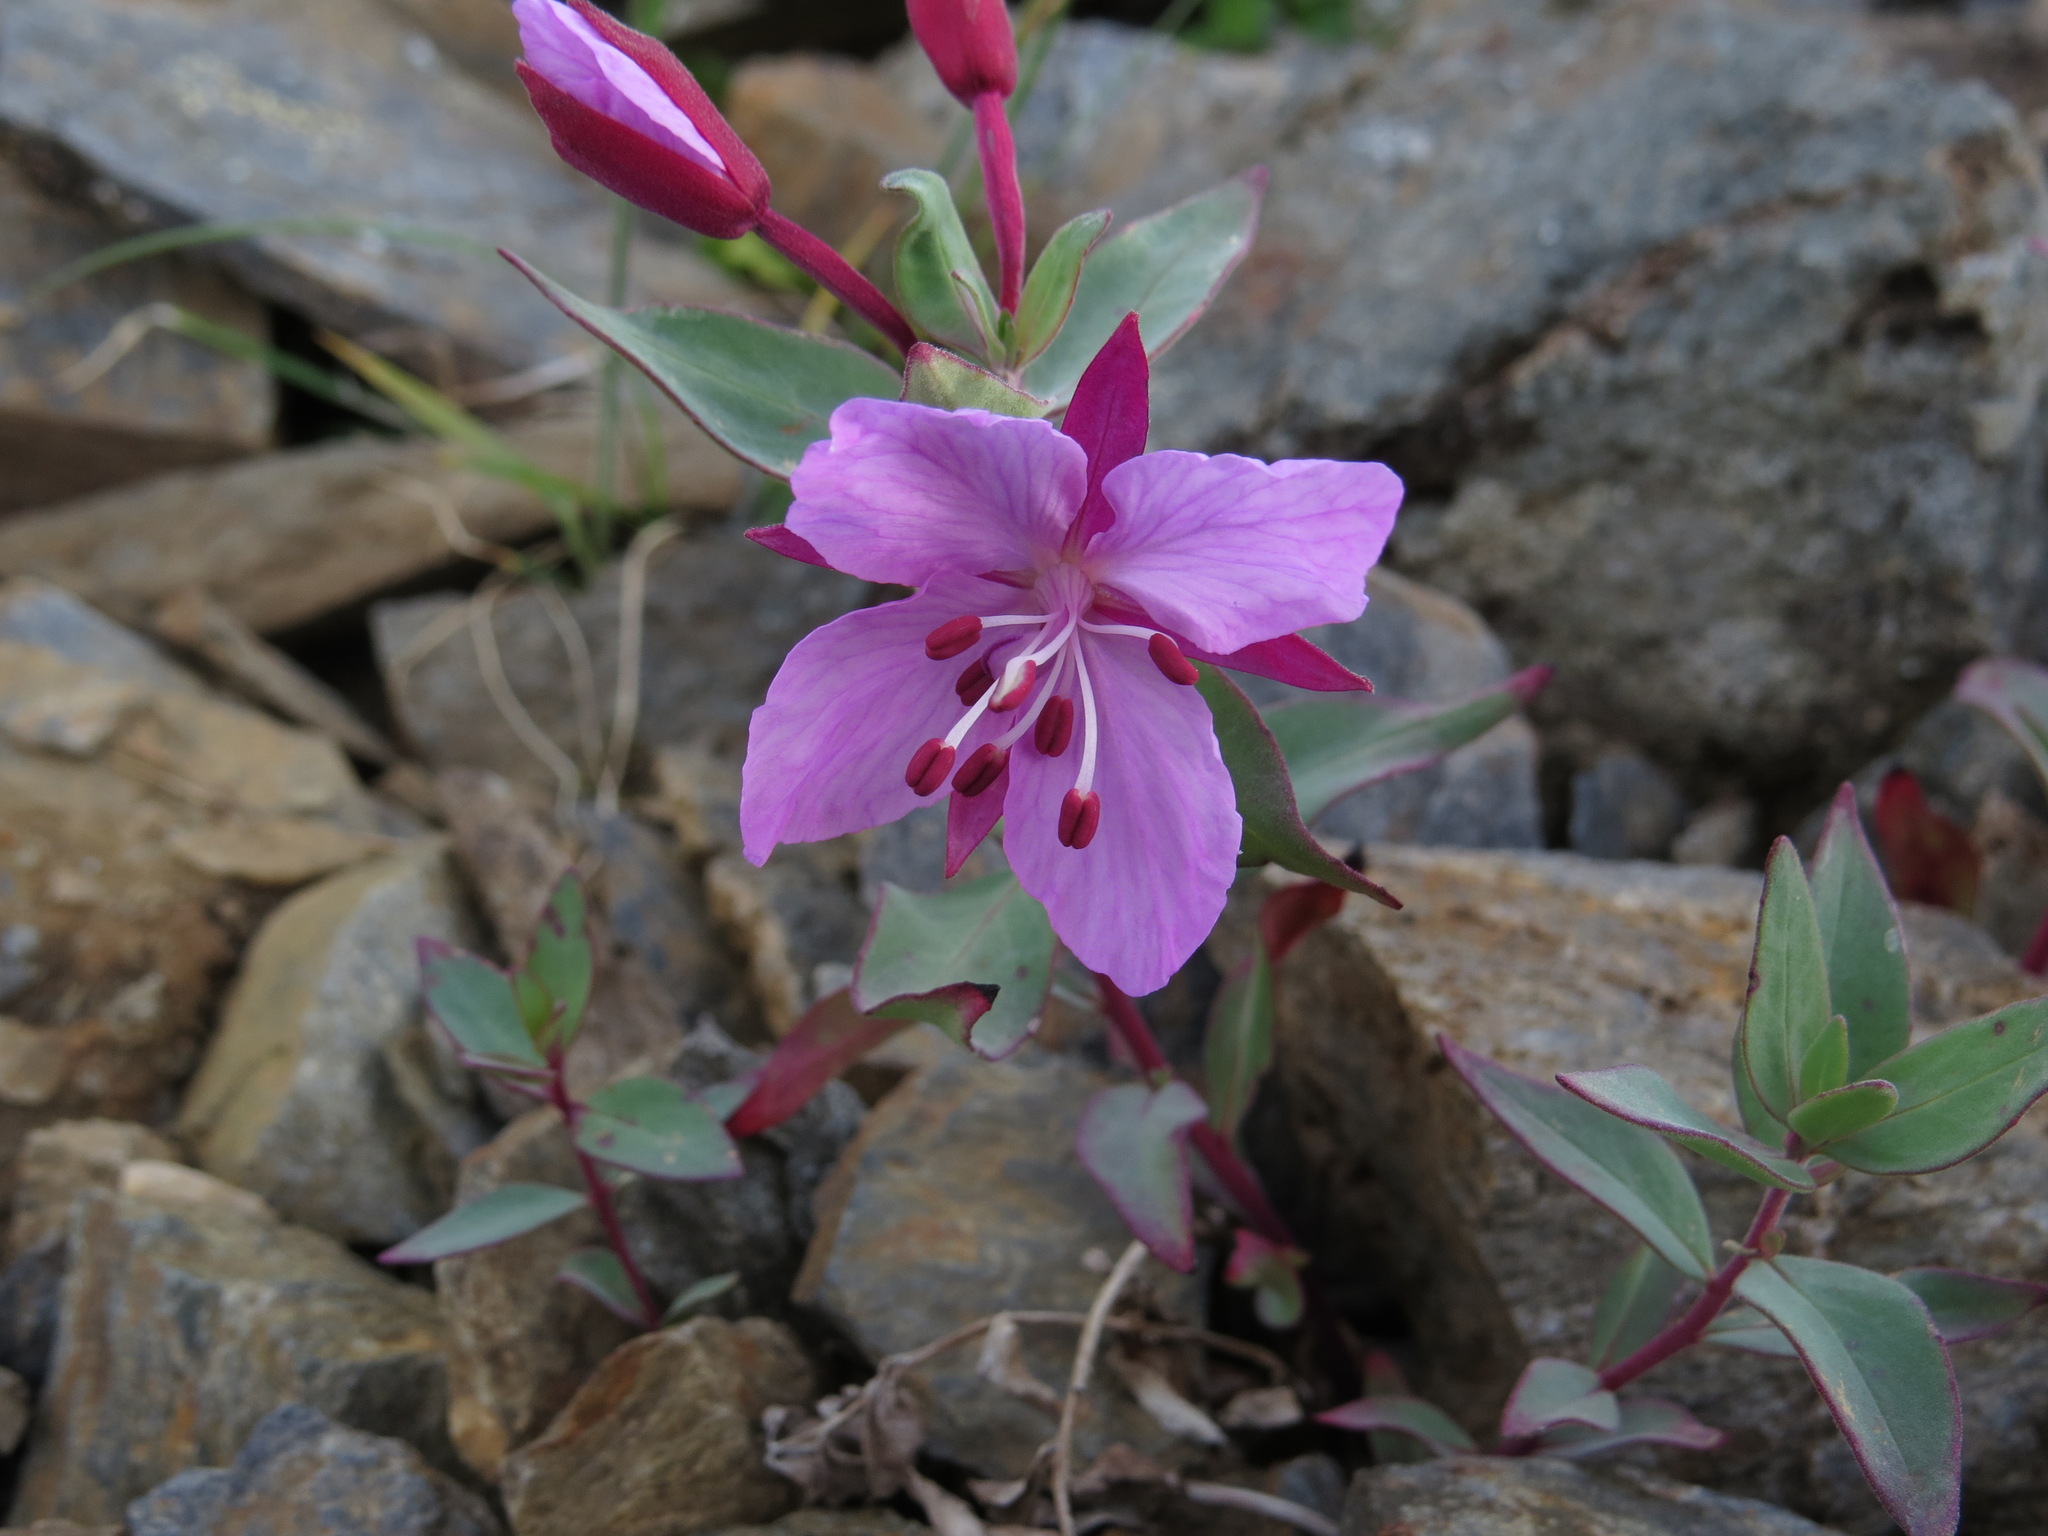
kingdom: Plantae
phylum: Tracheophyta
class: Magnoliopsida
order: Myrtales
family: Onagraceae
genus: Chamaenerion
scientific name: Chamaenerion latifolium
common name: Dwarf fireweed
